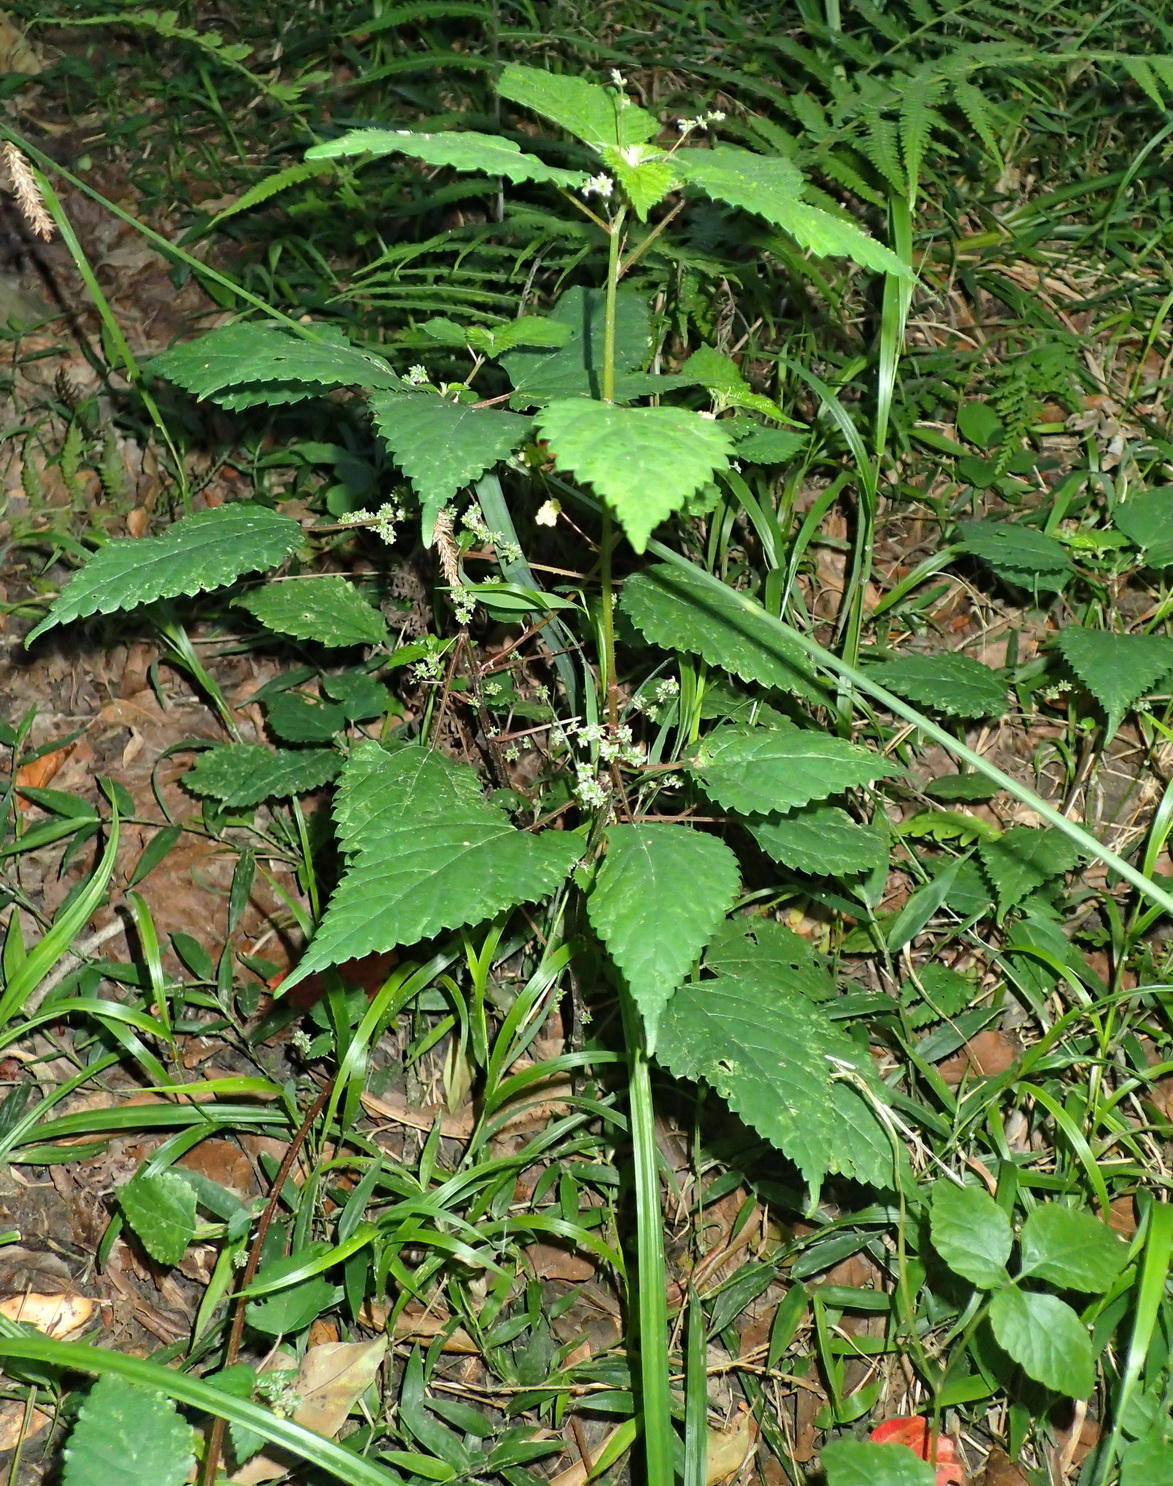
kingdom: Plantae
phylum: Tracheophyta
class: Magnoliopsida
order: Rosales
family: Urticaceae
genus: Droguetia
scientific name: Droguetia iners
